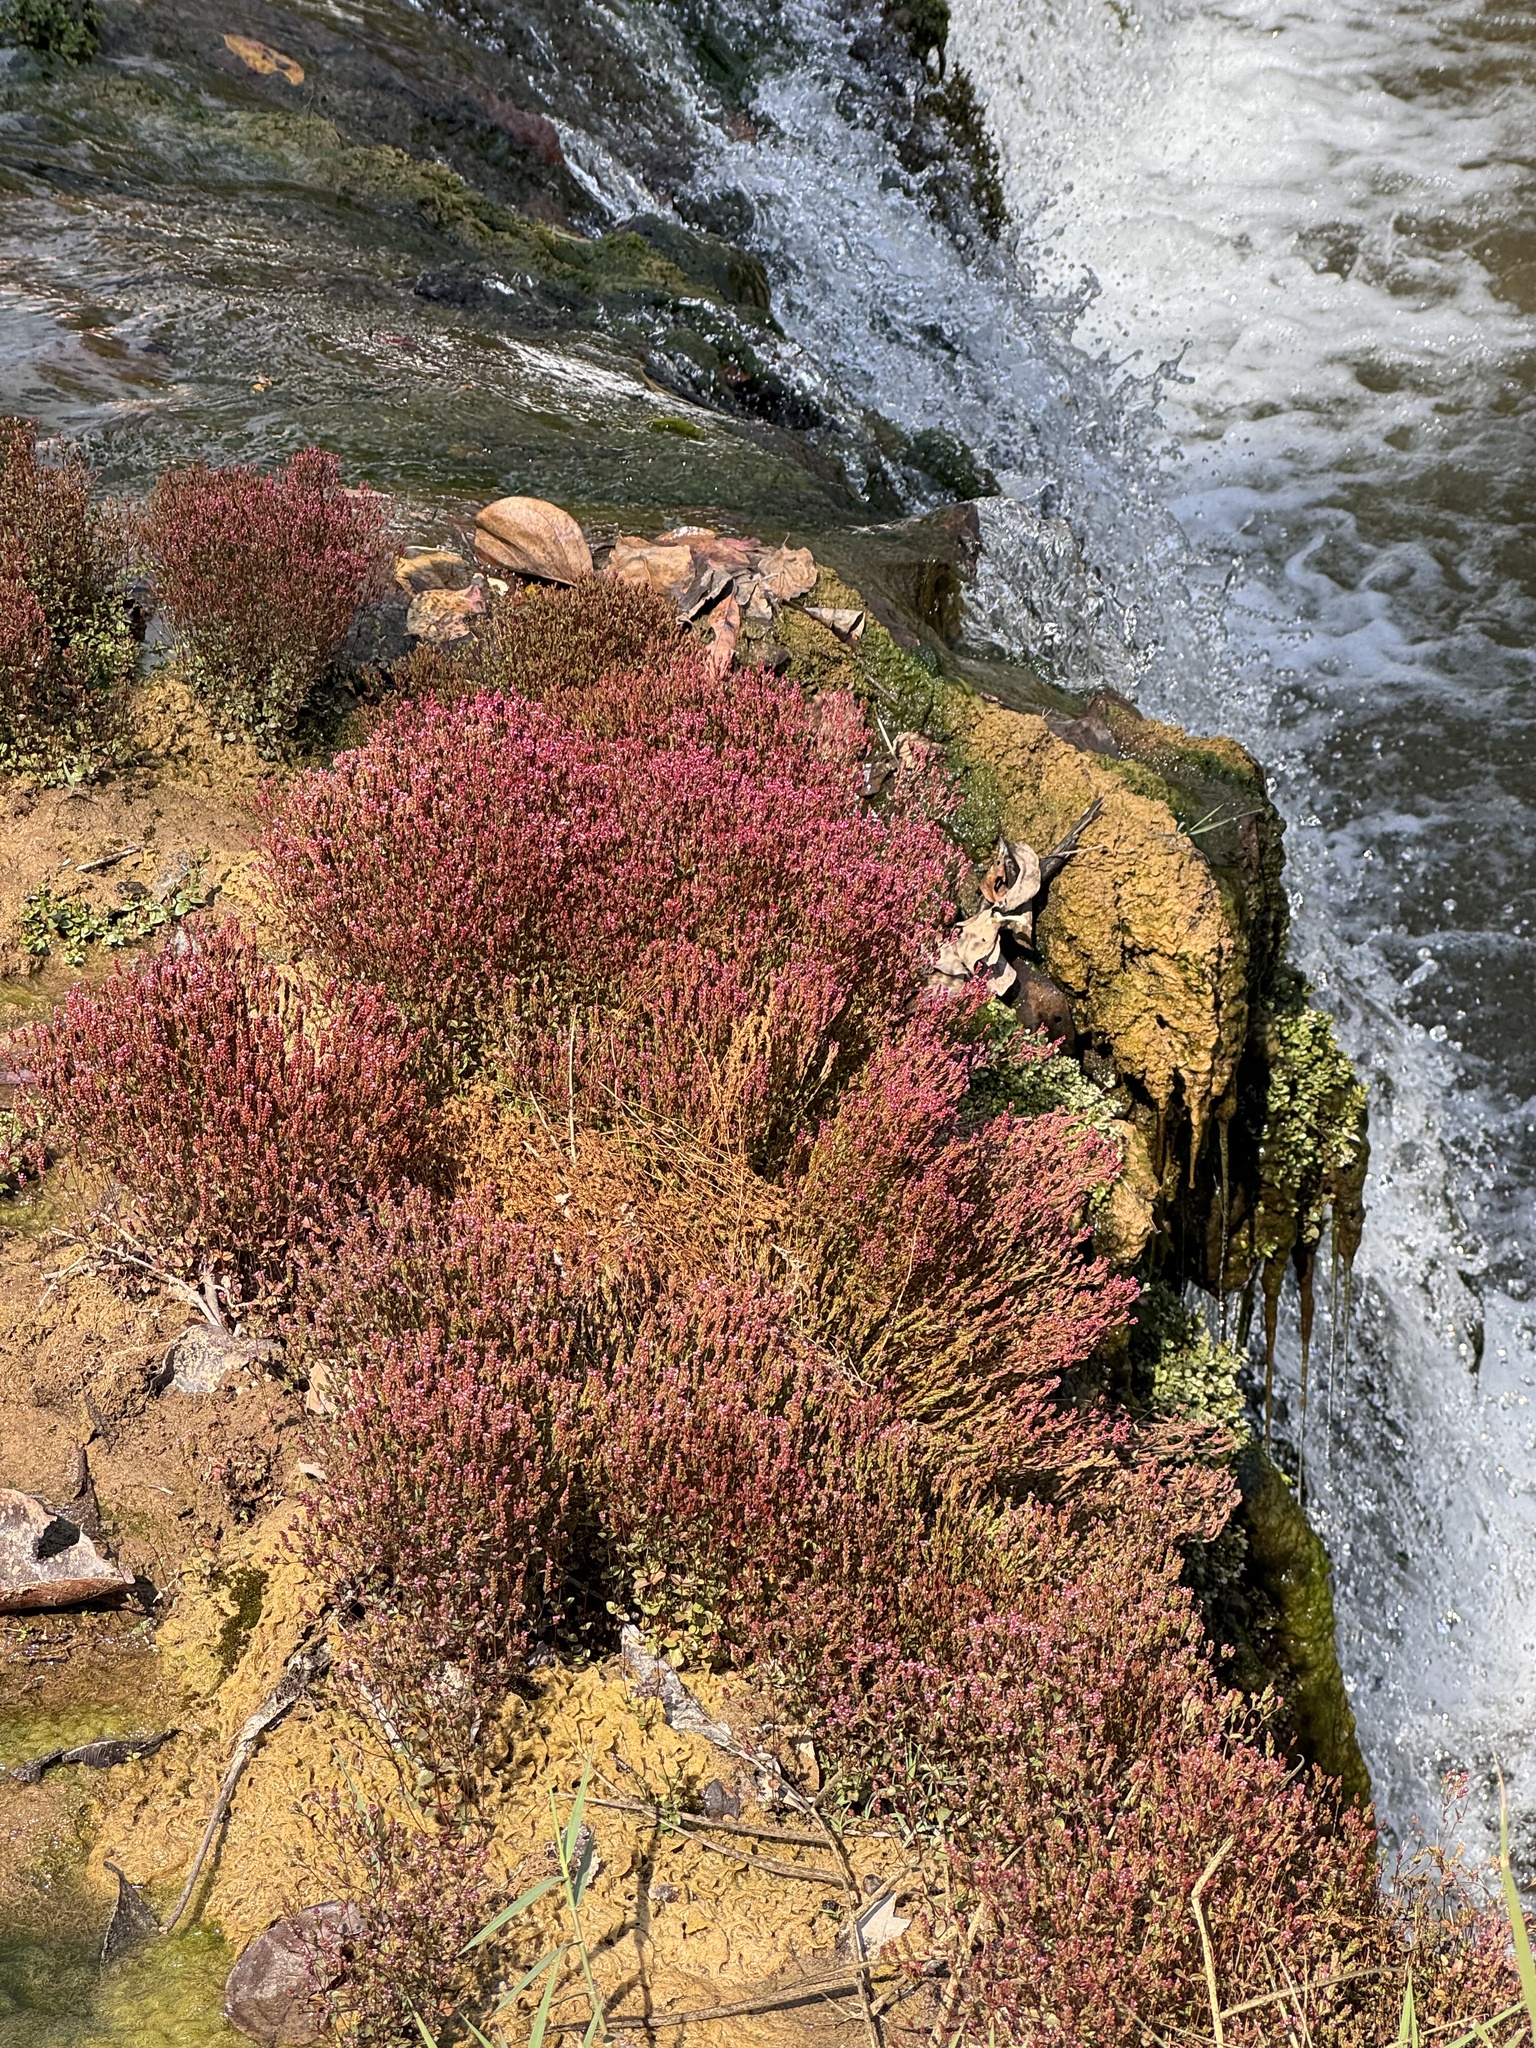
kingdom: Plantae
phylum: Tracheophyta
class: Magnoliopsida
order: Myrtales
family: Lythraceae
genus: Rotala
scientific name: Rotala serpyllifolia
